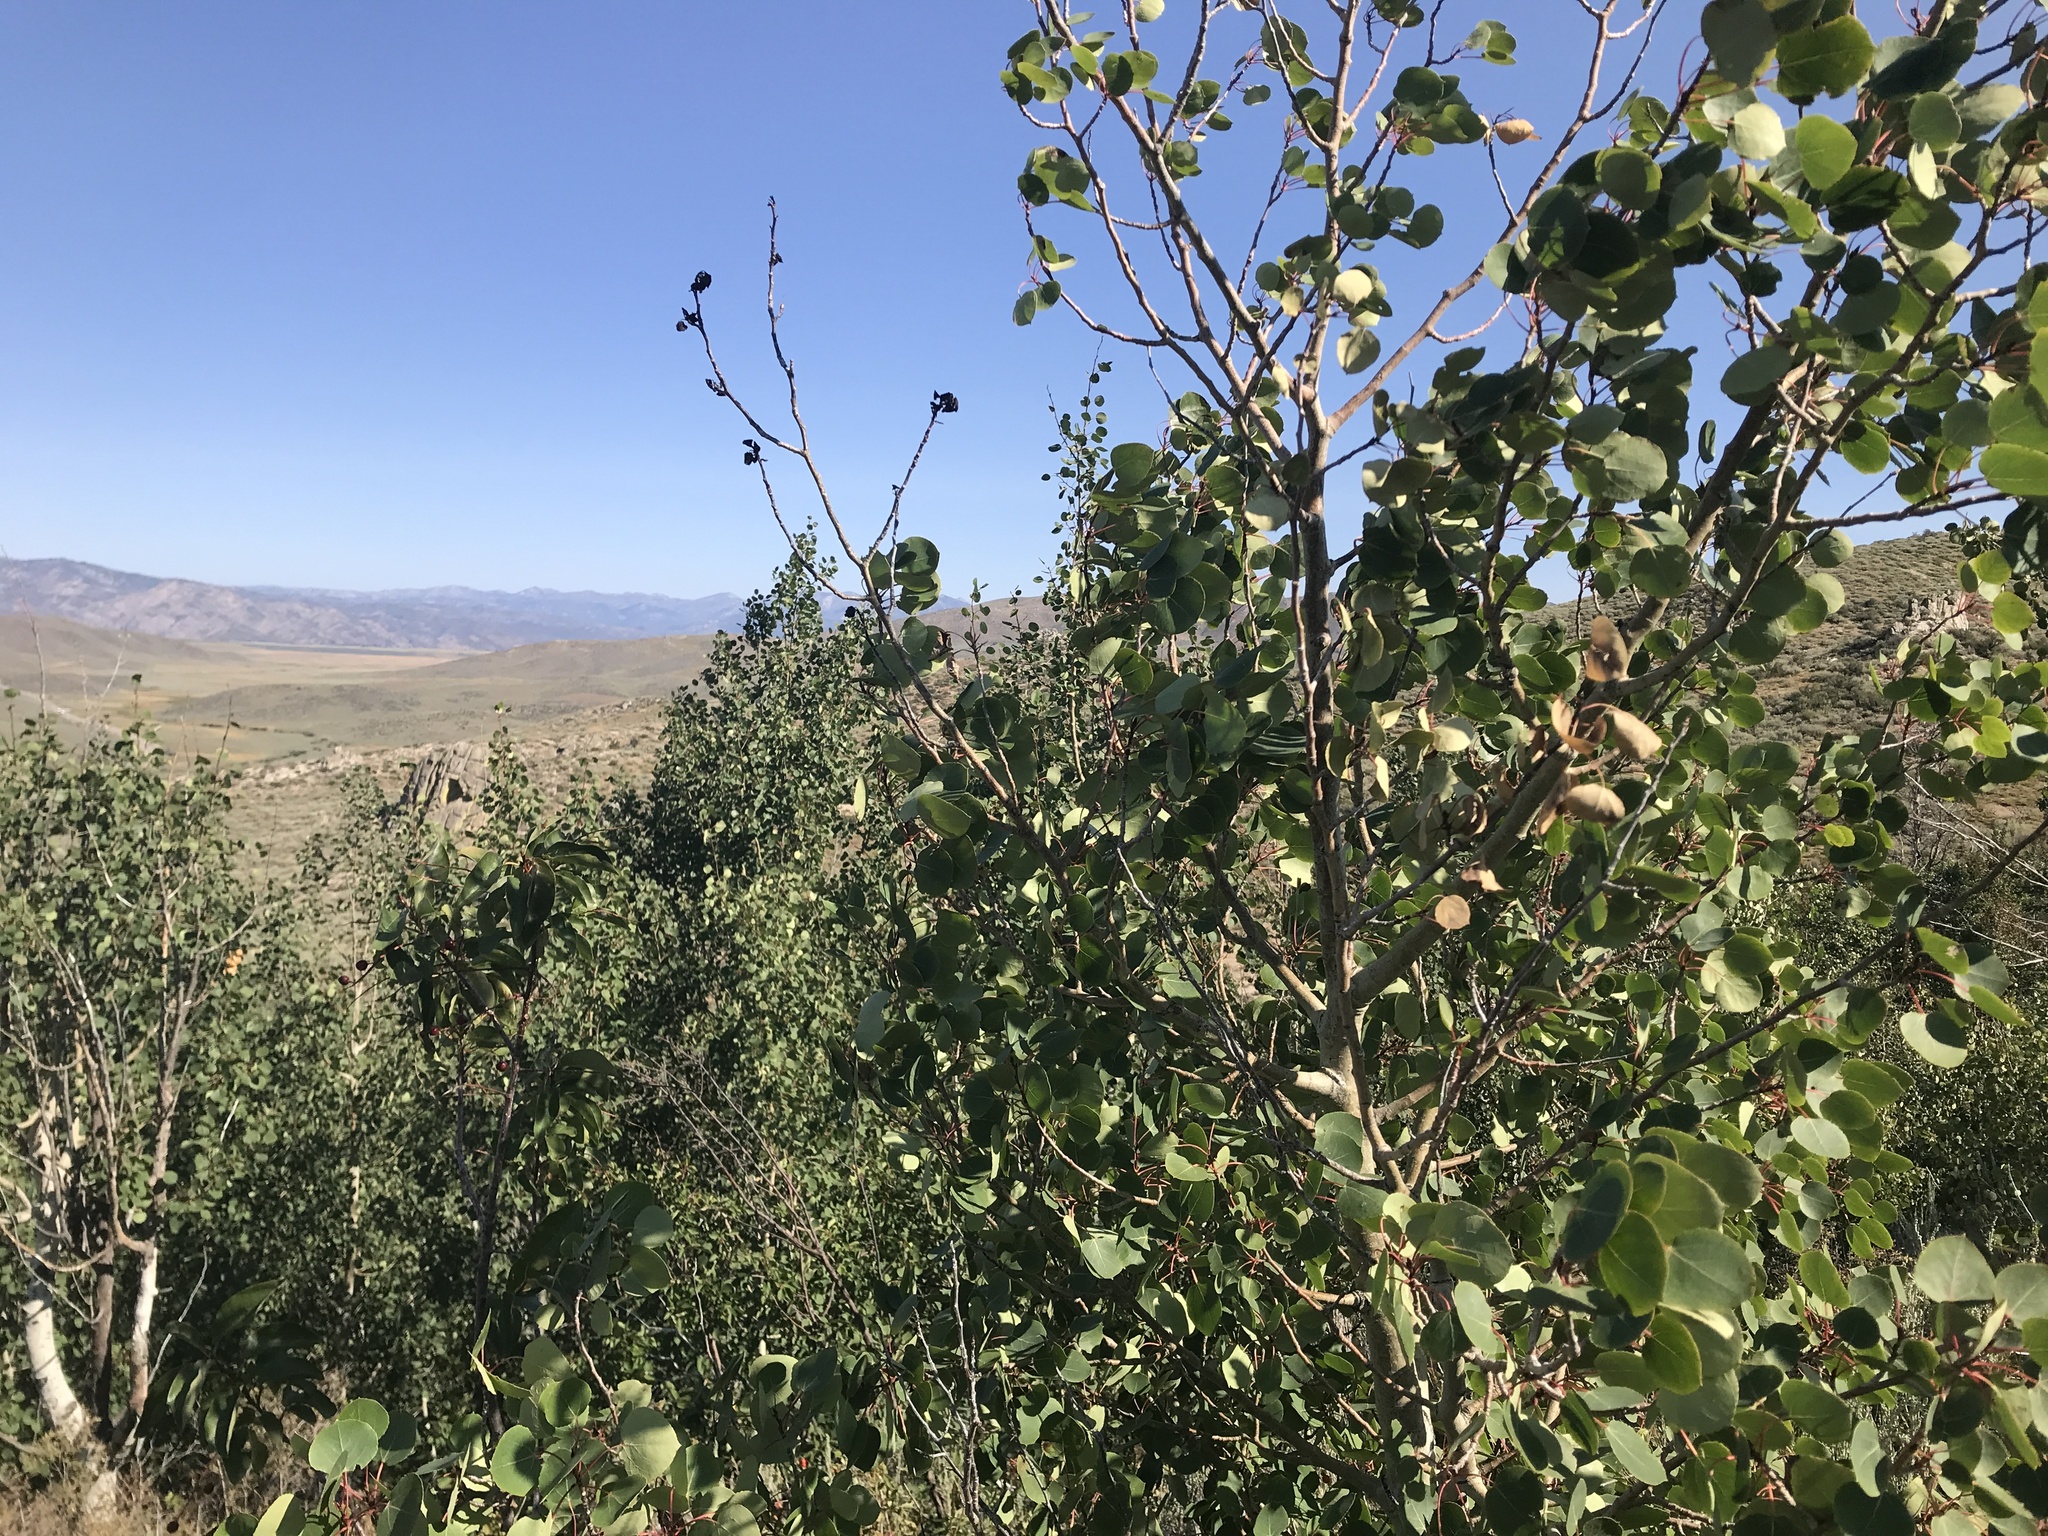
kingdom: Plantae
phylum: Tracheophyta
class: Magnoliopsida
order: Malpighiales
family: Salicaceae
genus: Populus
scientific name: Populus tremuloides
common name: Quaking aspen
